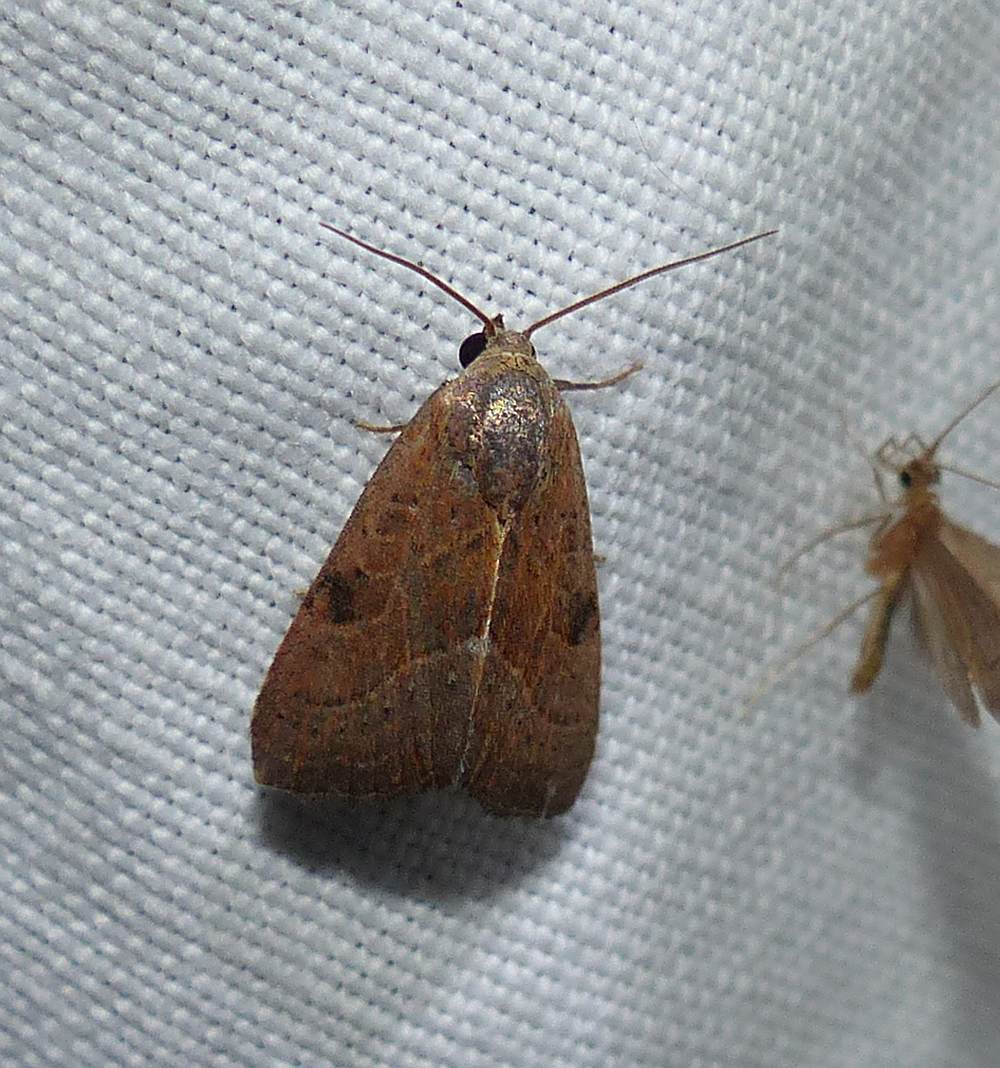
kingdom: Animalia
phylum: Arthropoda
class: Insecta
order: Lepidoptera
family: Noctuidae
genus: Galgula
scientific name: Galgula partita
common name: Wedgeling
